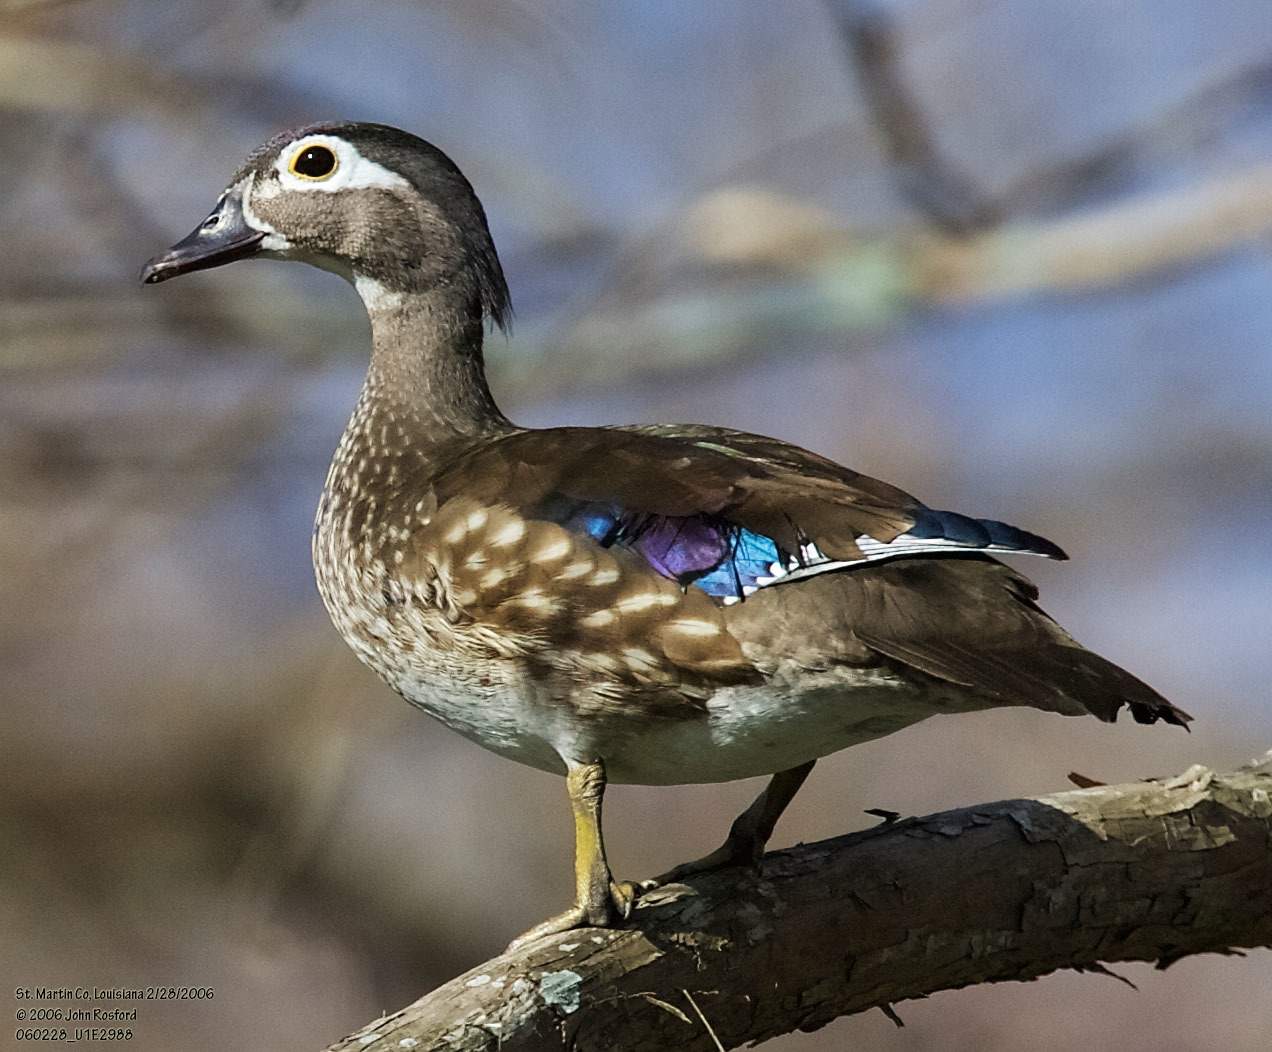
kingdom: Animalia
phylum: Chordata
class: Aves
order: Anseriformes
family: Anatidae
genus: Aix
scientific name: Aix sponsa
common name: Wood duck
